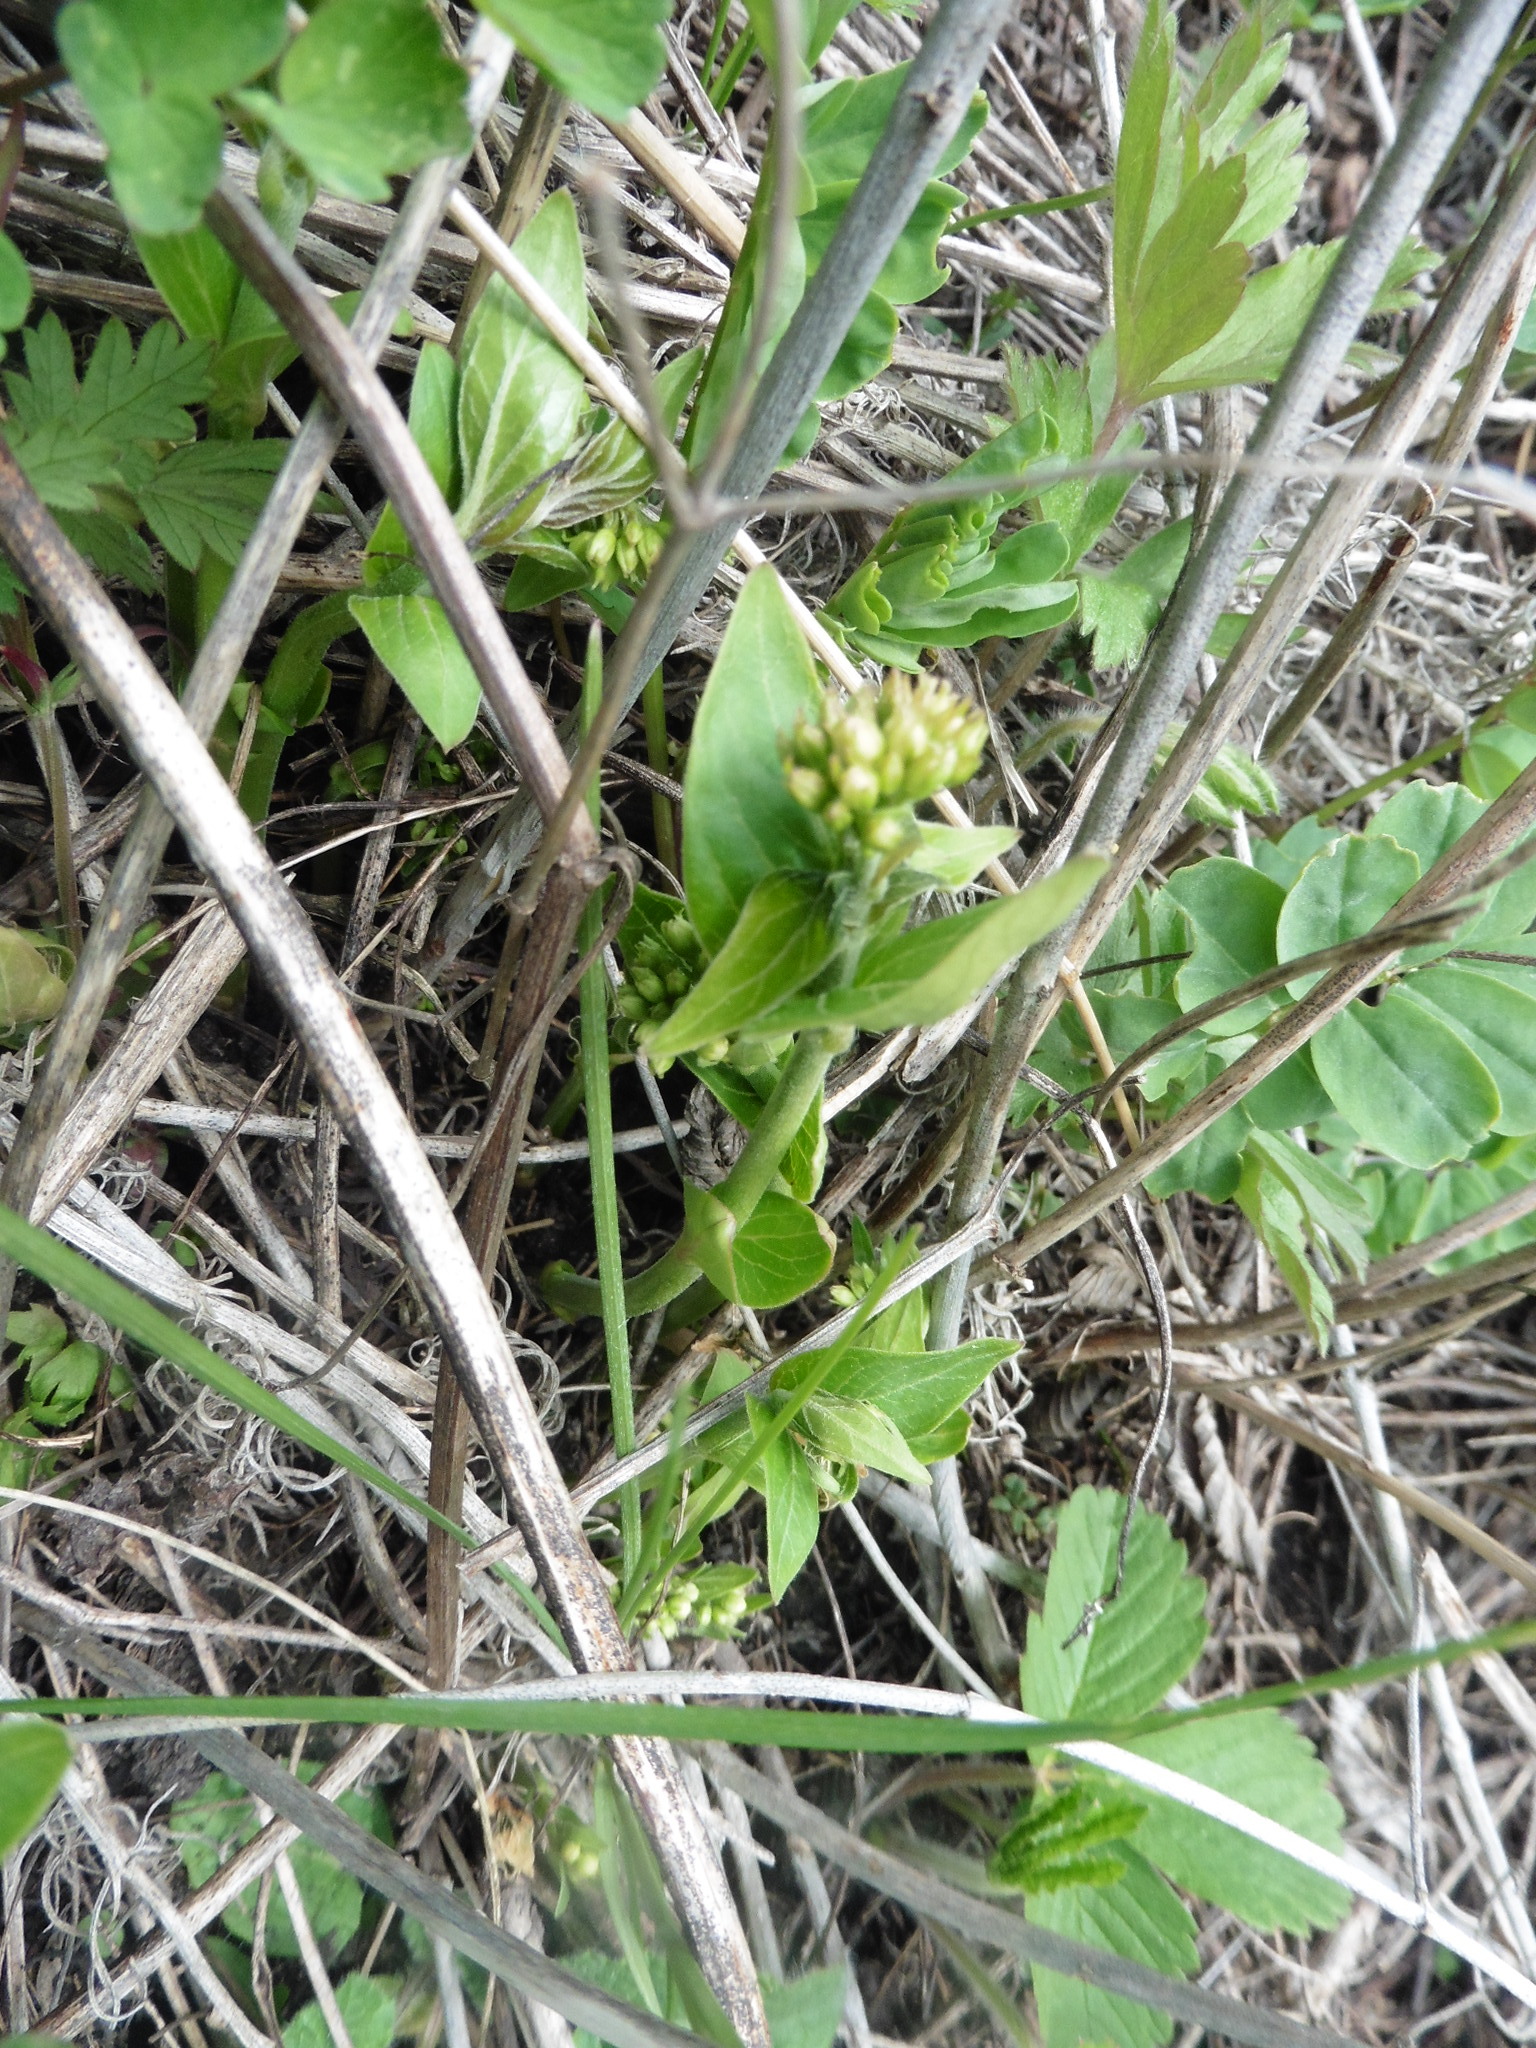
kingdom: Plantae
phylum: Tracheophyta
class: Magnoliopsida
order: Gentianales
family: Apocynaceae
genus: Vincetoxicum
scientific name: Vincetoxicum hirundinaria
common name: White swallowwort
